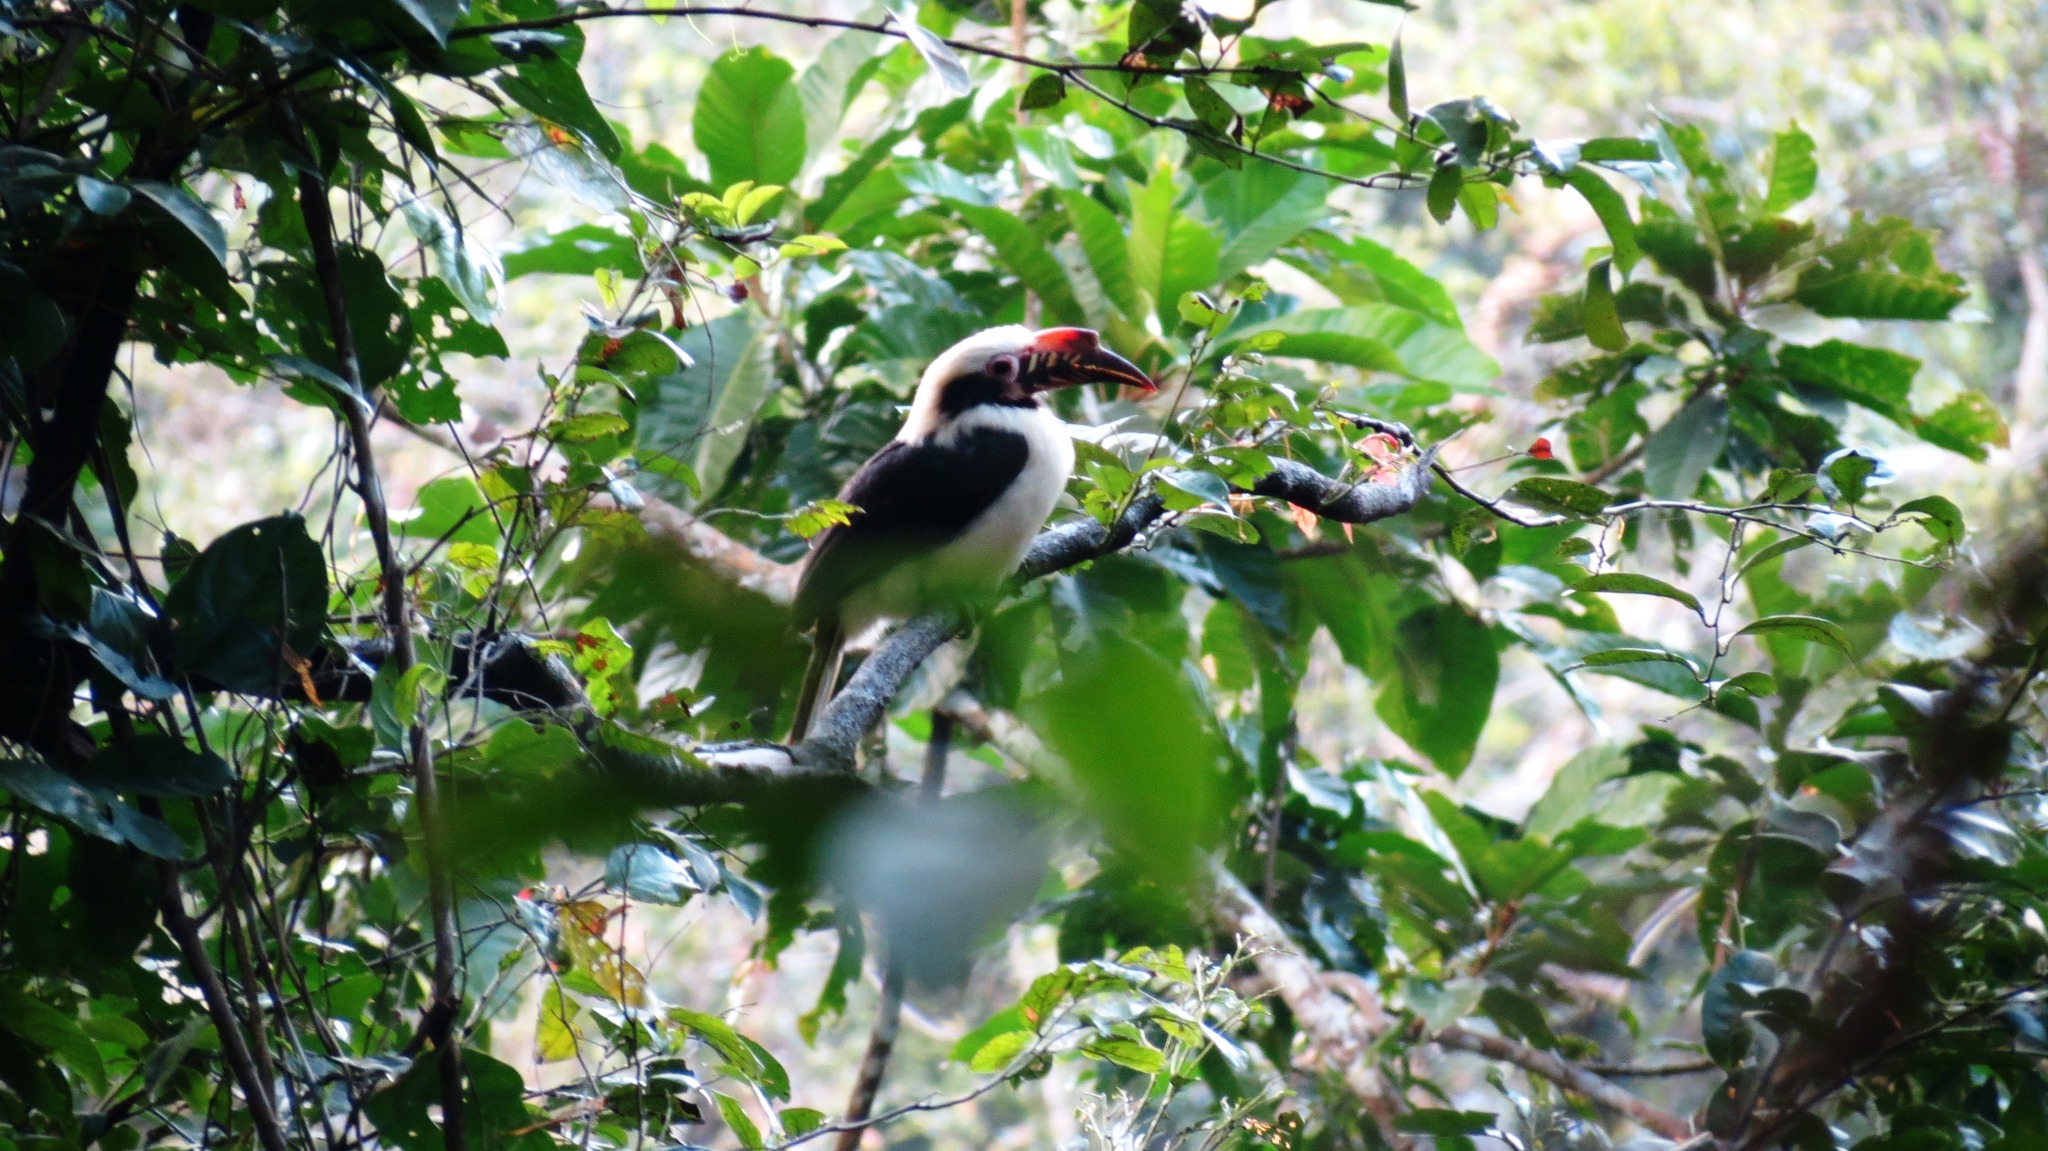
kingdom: Animalia
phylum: Chordata
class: Aves
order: Bucerotiformes
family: Bucerotidae
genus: Penelopides
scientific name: Penelopides manillae
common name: Luzon hornbill
